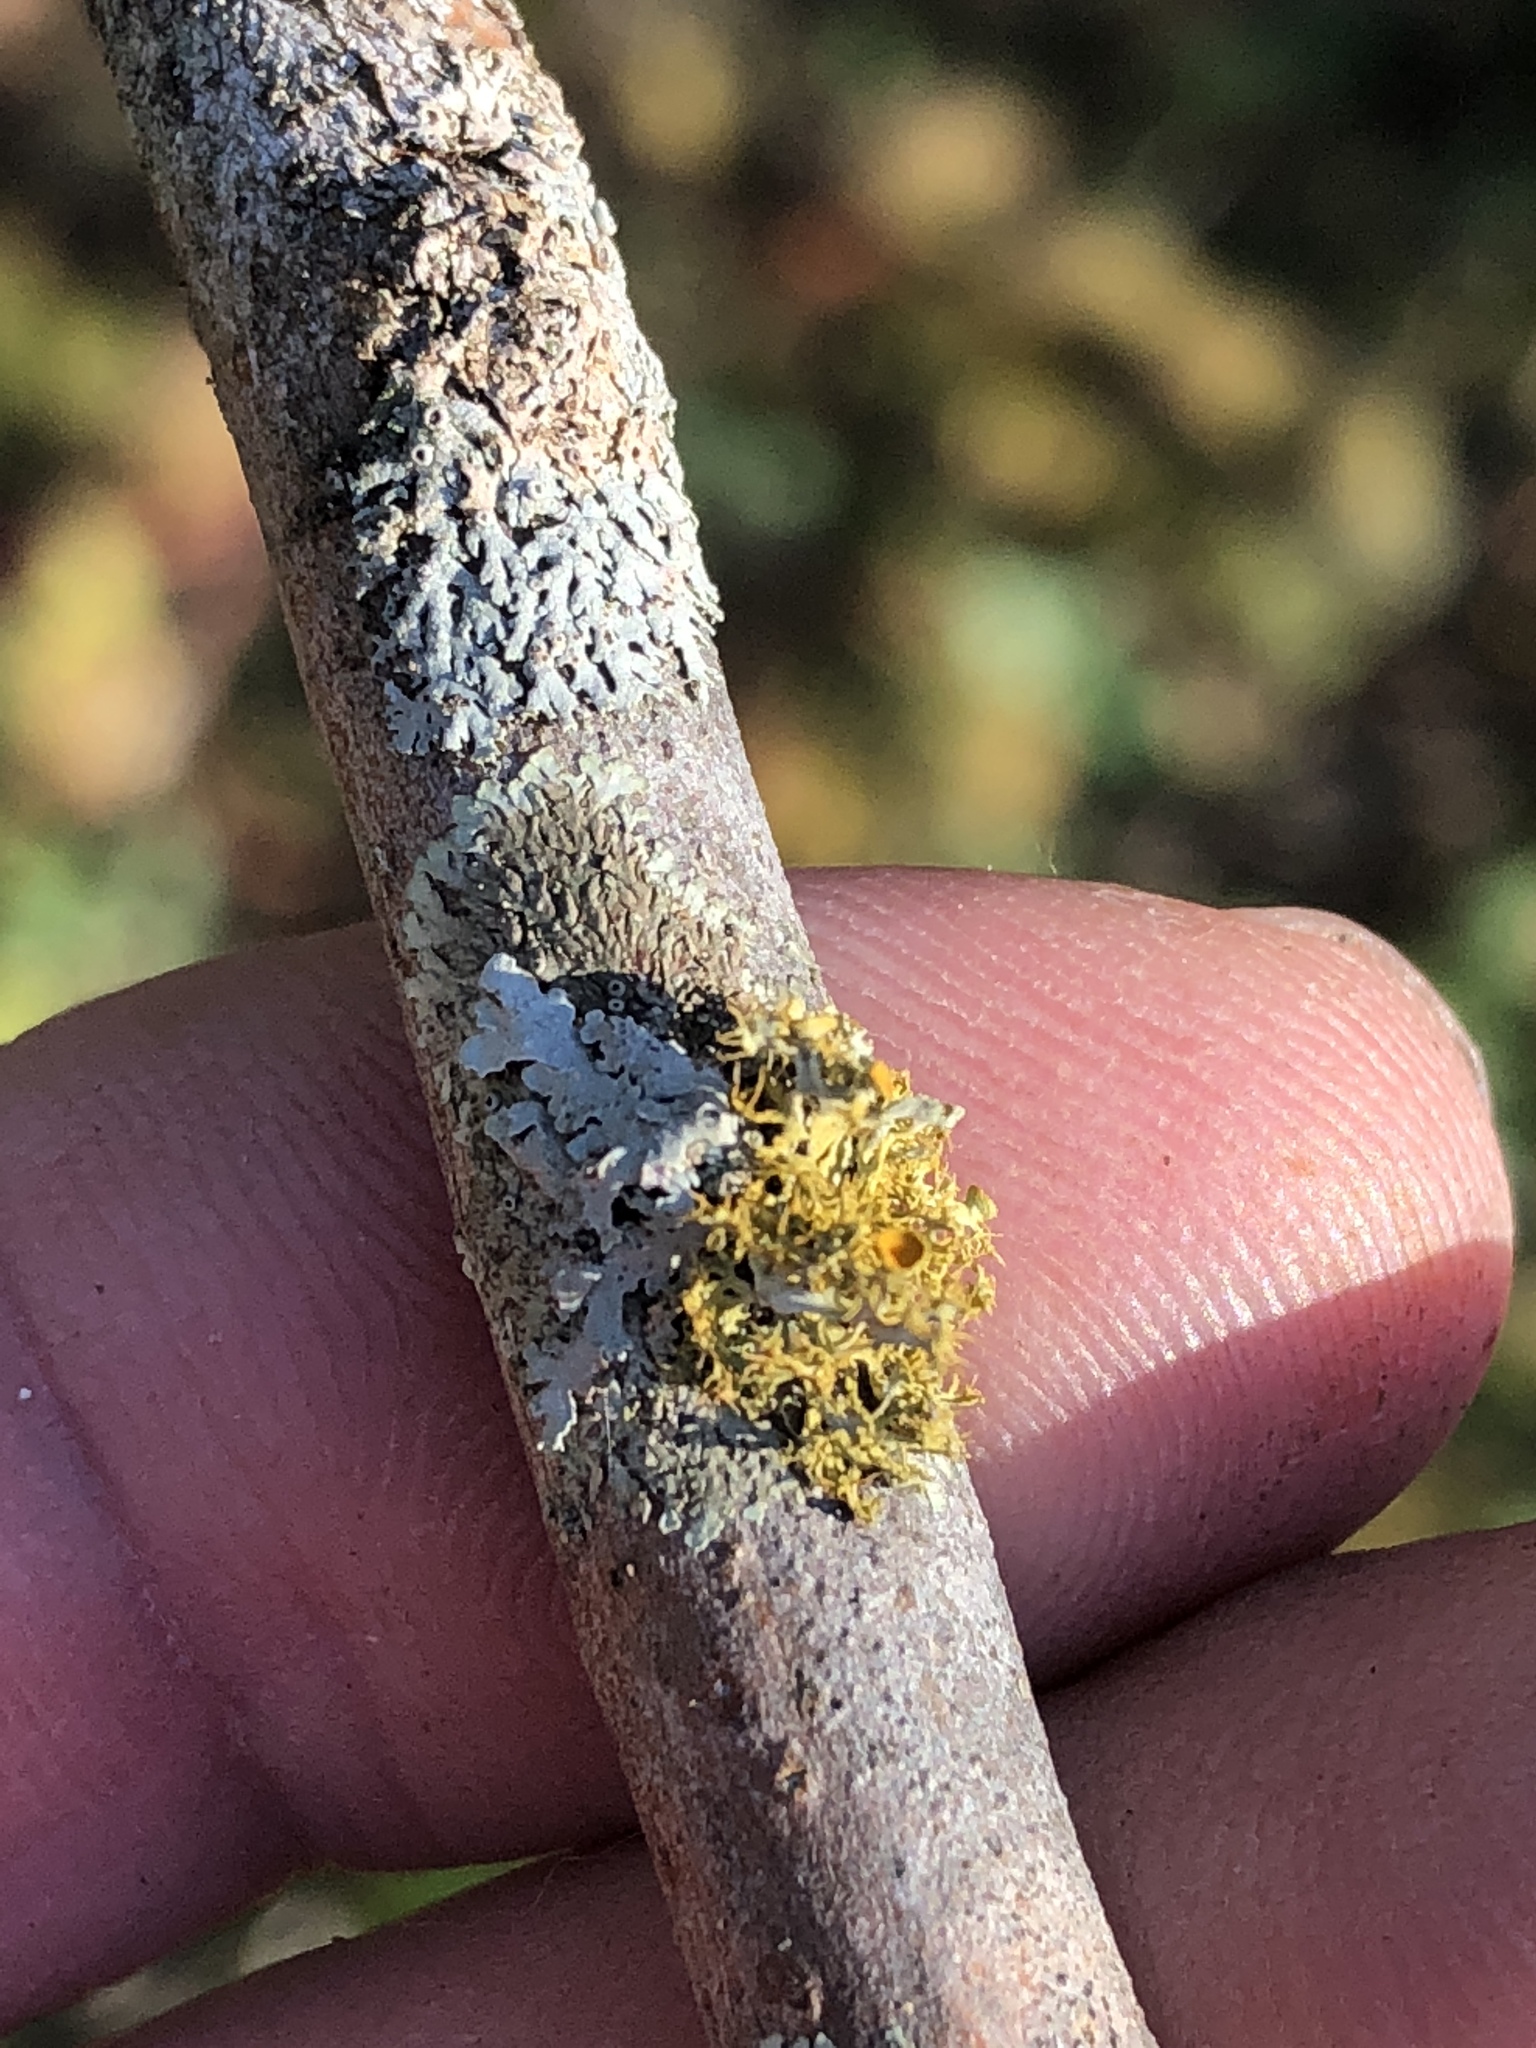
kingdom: Fungi
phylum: Ascomycota
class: Lecanoromycetes
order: Teloschistales
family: Teloschistaceae
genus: Niorma
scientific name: Niorma chrysophthalma
